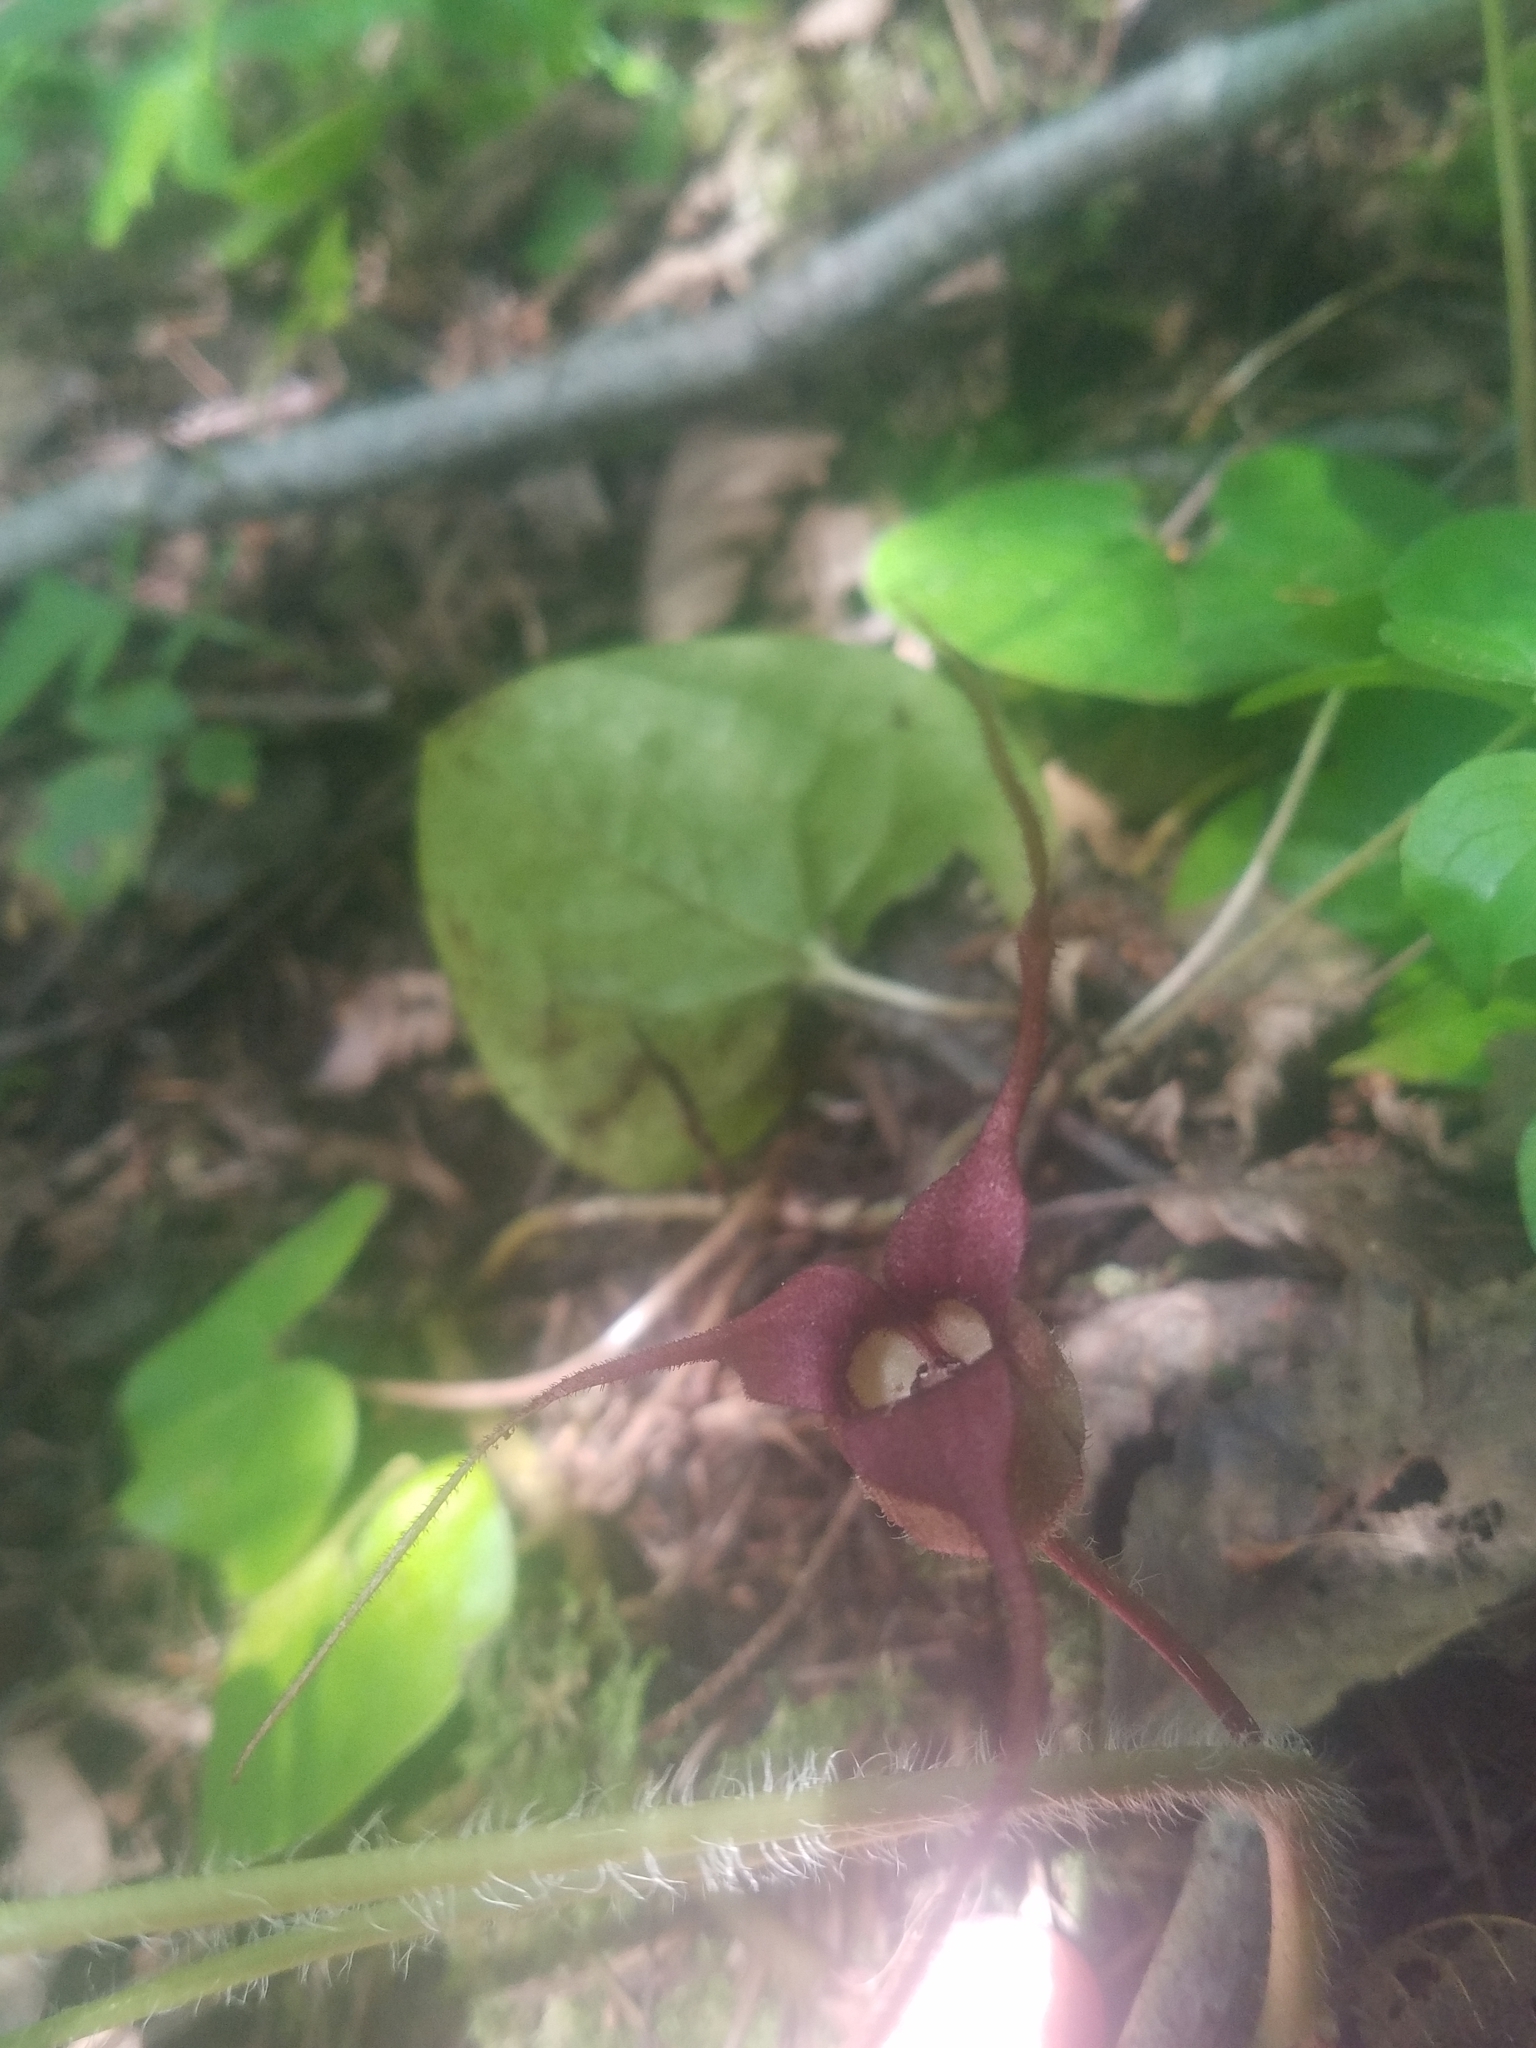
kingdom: Plantae
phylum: Tracheophyta
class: Magnoliopsida
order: Piperales
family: Aristolochiaceae
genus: Asarum
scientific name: Asarum caudatum
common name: Wild ginger
